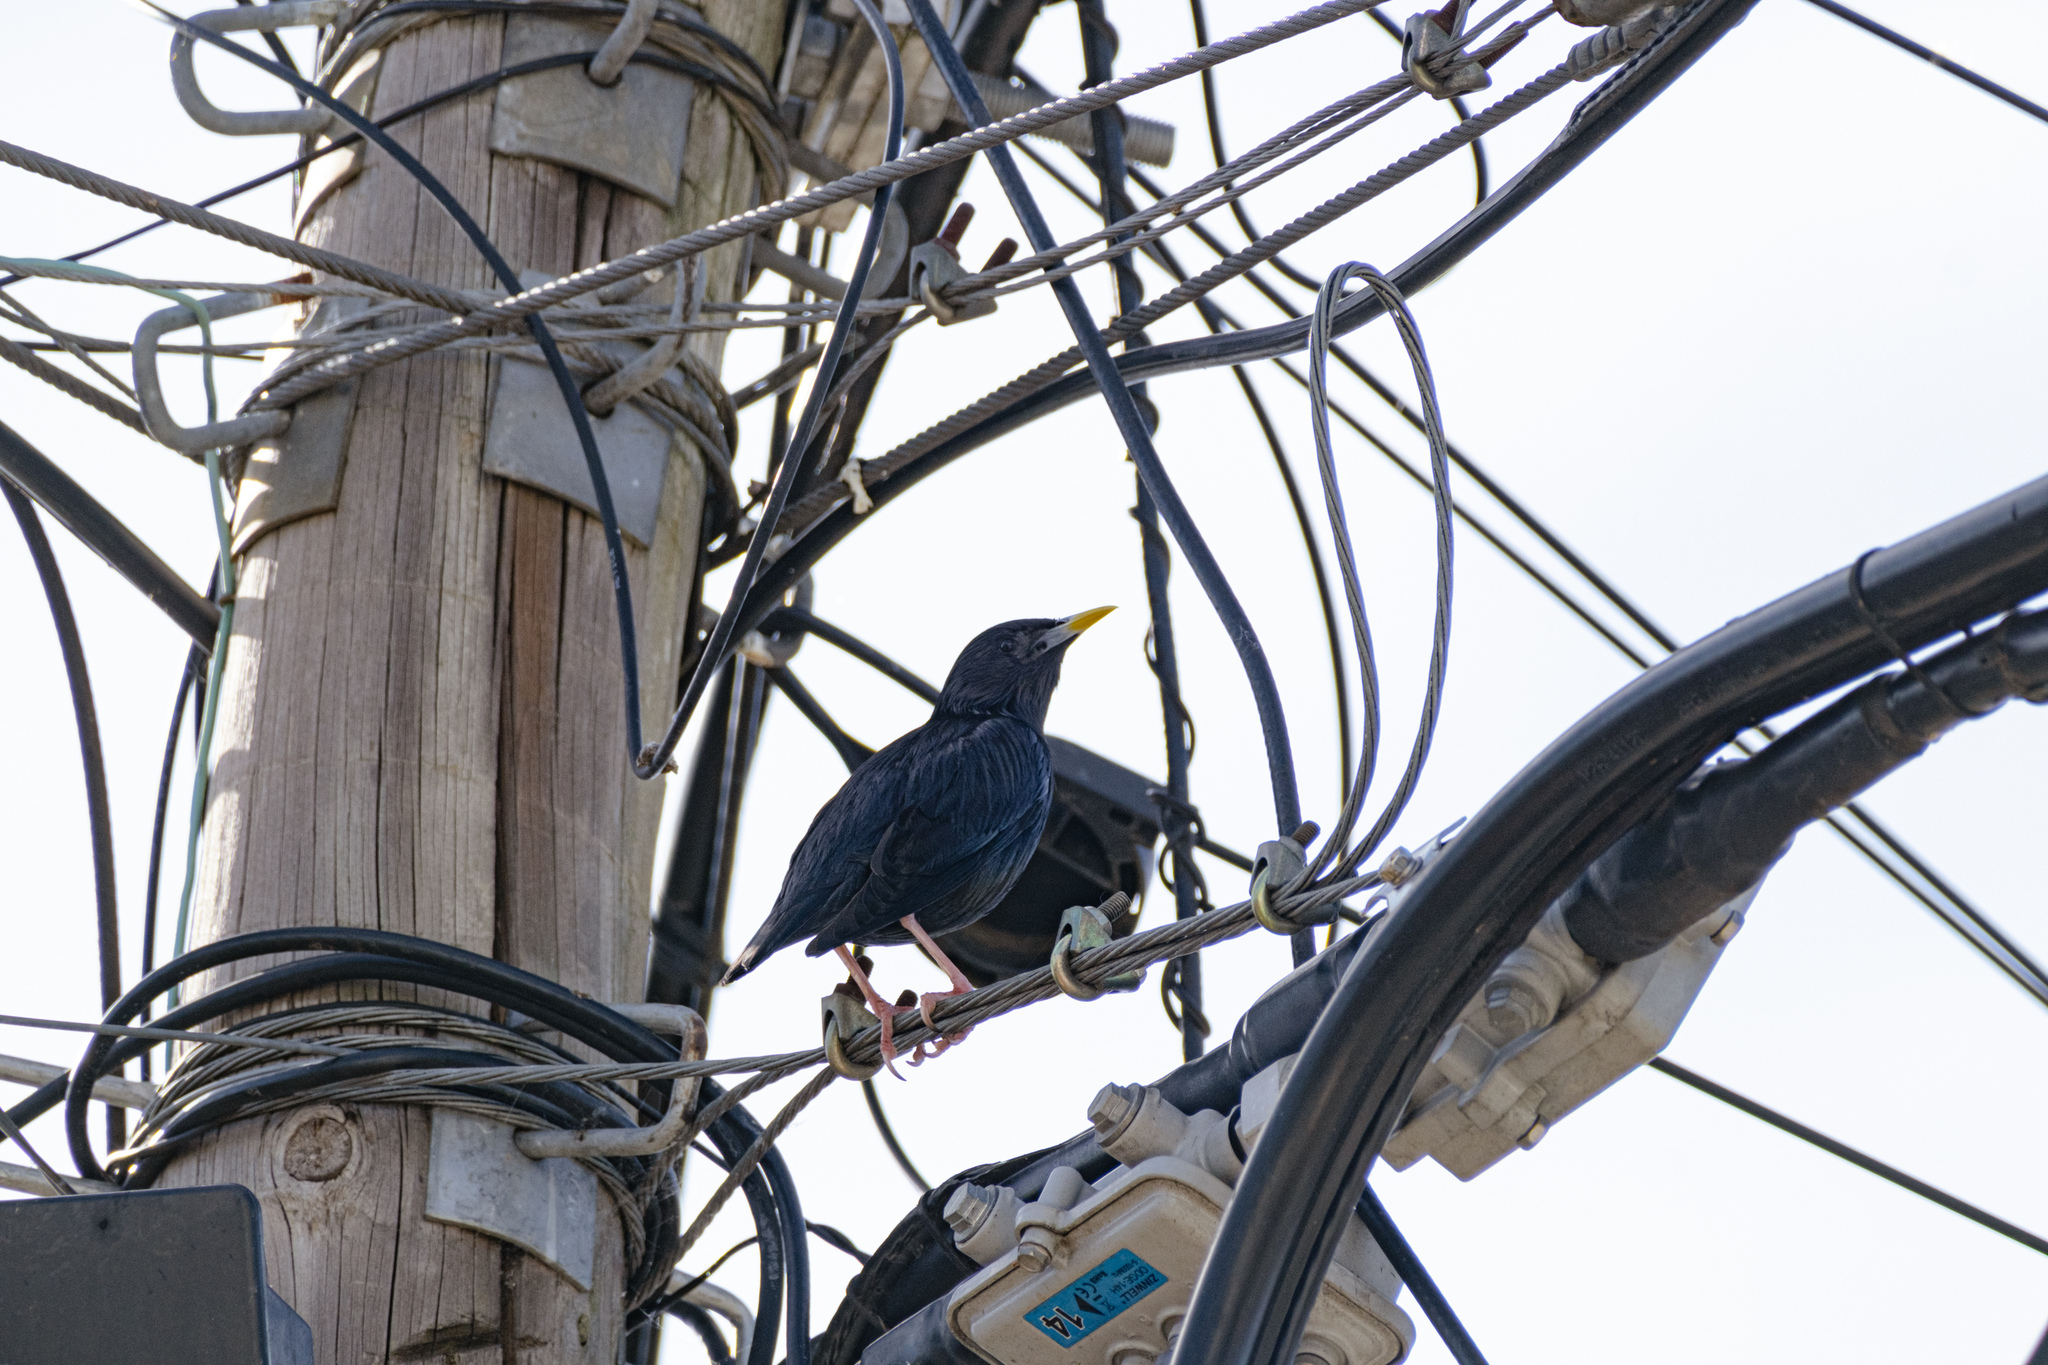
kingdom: Animalia
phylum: Chordata
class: Aves
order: Passeriformes
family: Sturnidae
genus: Sturnus
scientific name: Sturnus unicolor
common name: Spotless starling
